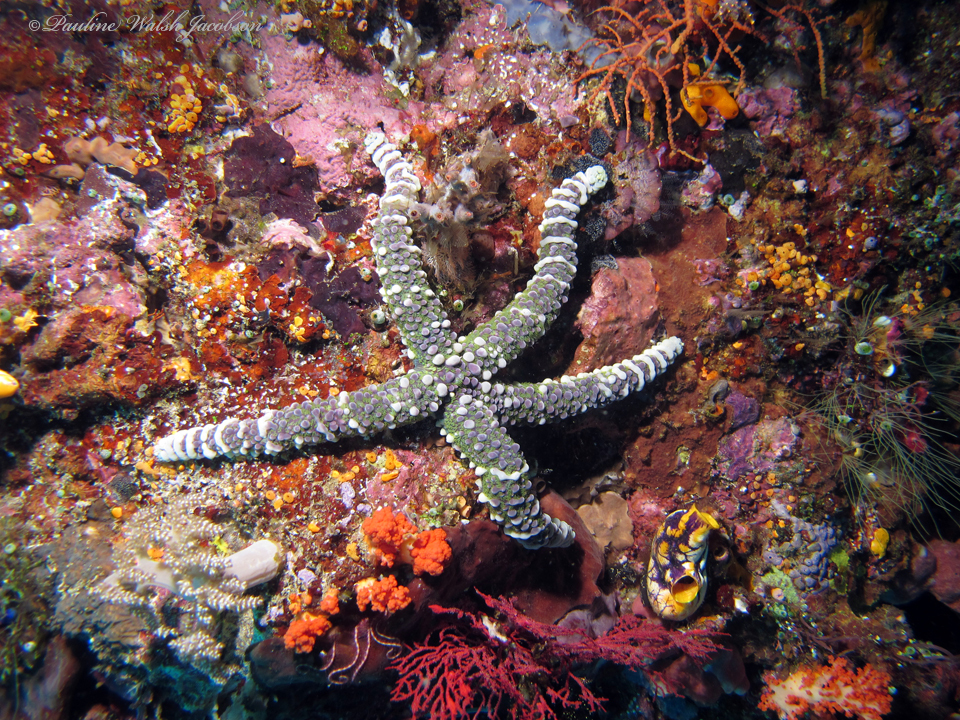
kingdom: Animalia
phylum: Echinodermata
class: Asteroidea
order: Spinulosida
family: Echinasteridae
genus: Echinaster
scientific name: Echinaster callosus
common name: Banded bubble star
